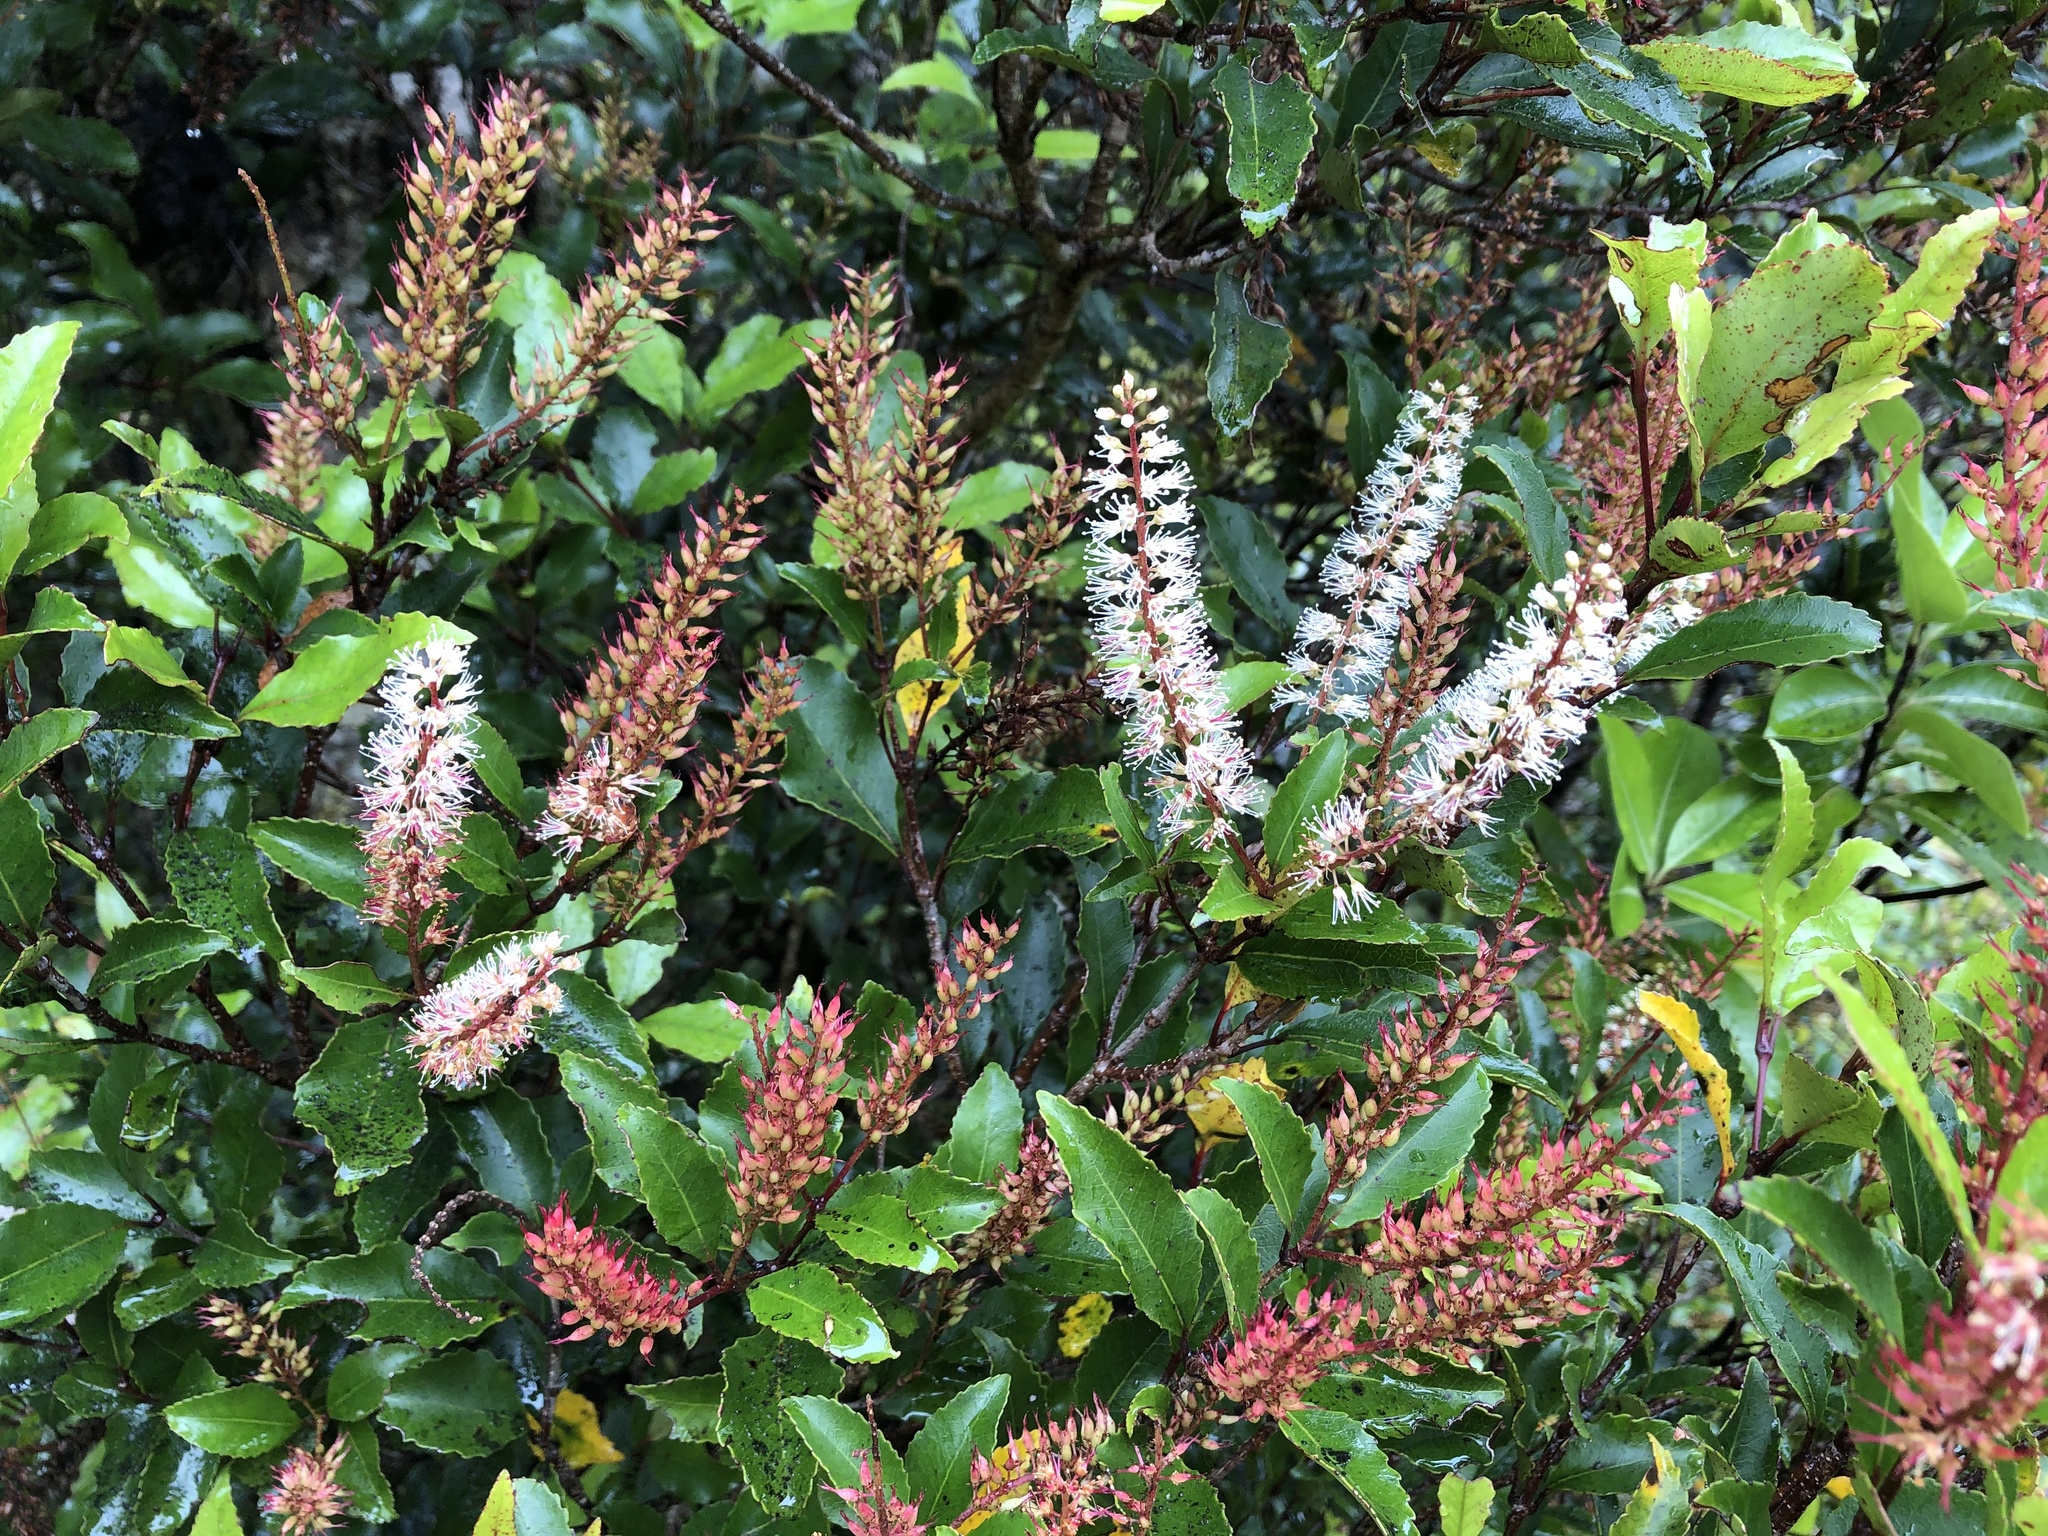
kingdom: Plantae
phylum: Tracheophyta
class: Magnoliopsida
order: Oxalidales
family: Cunoniaceae
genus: Pterophylla
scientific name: Pterophylla racemosa
